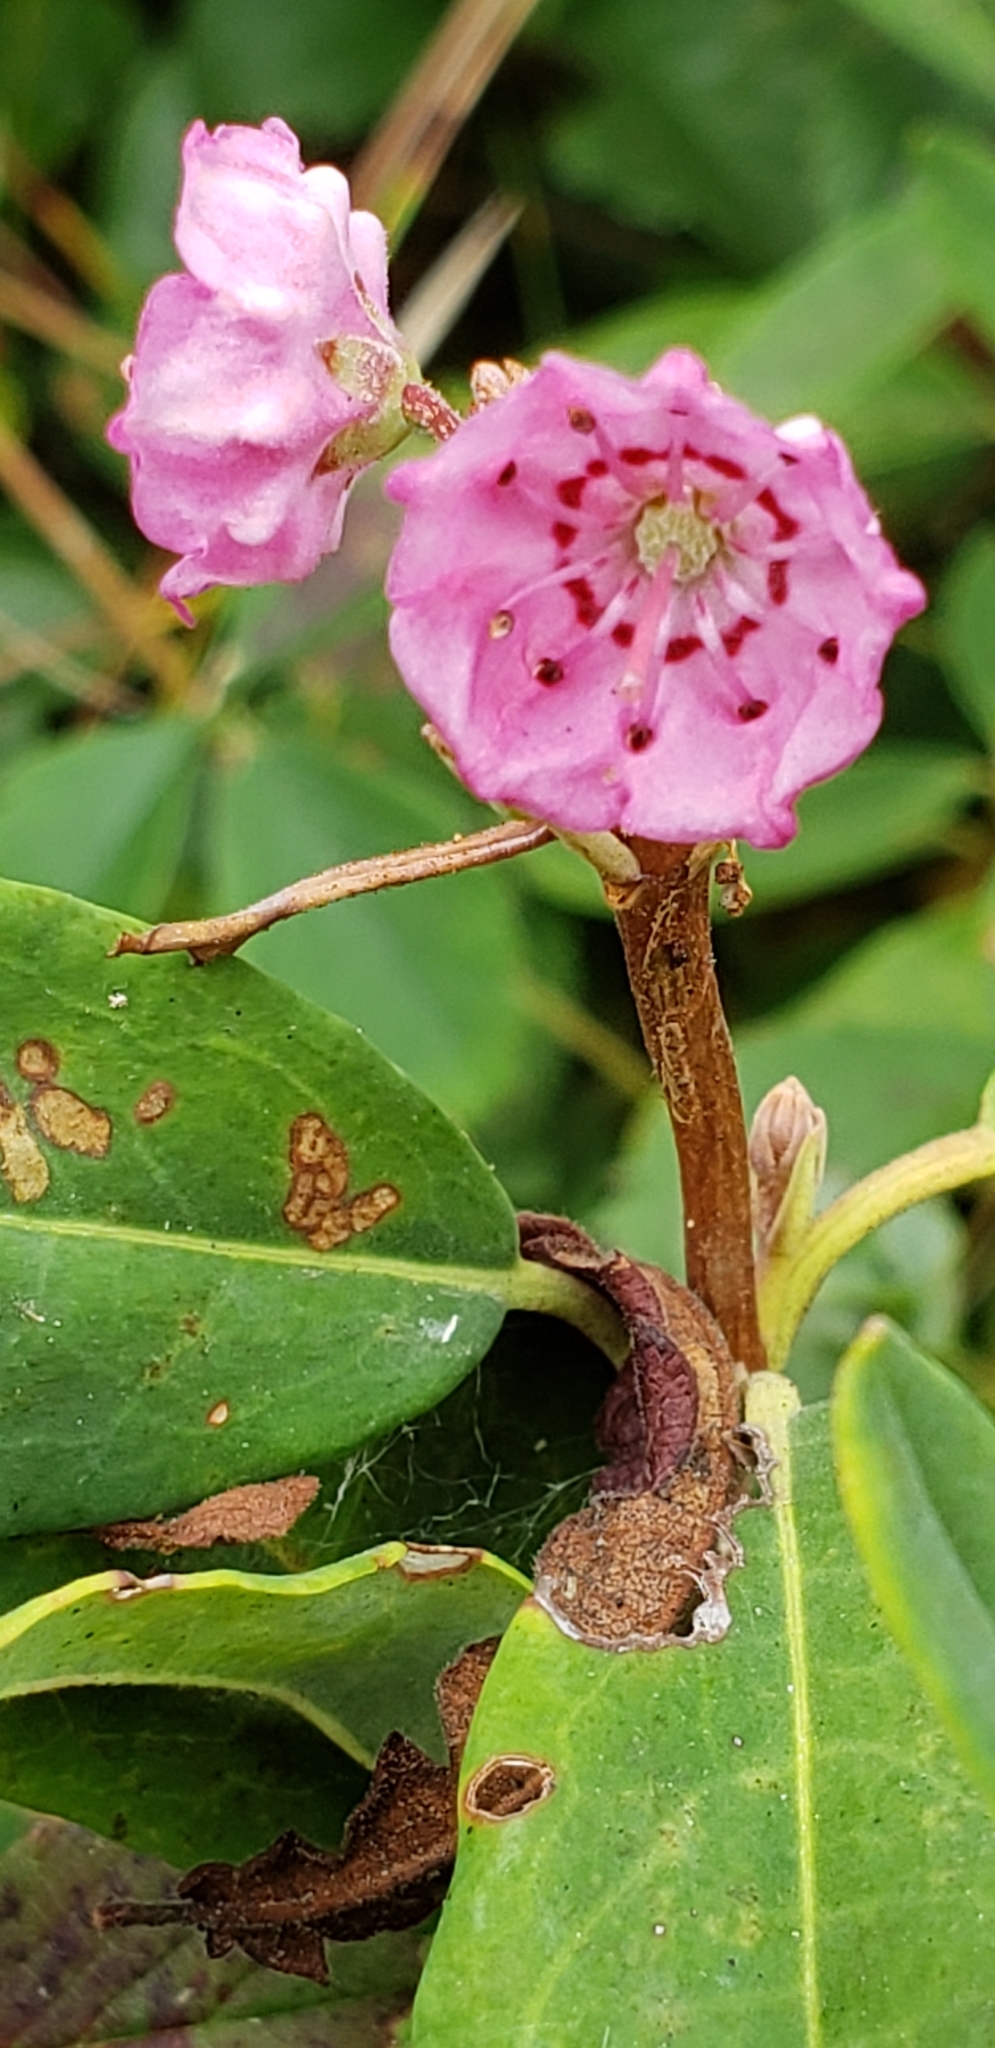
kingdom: Plantae
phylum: Tracheophyta
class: Magnoliopsida
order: Ericales
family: Ericaceae
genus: Kalmia
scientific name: Kalmia angustifolia
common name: Sheep-laurel
